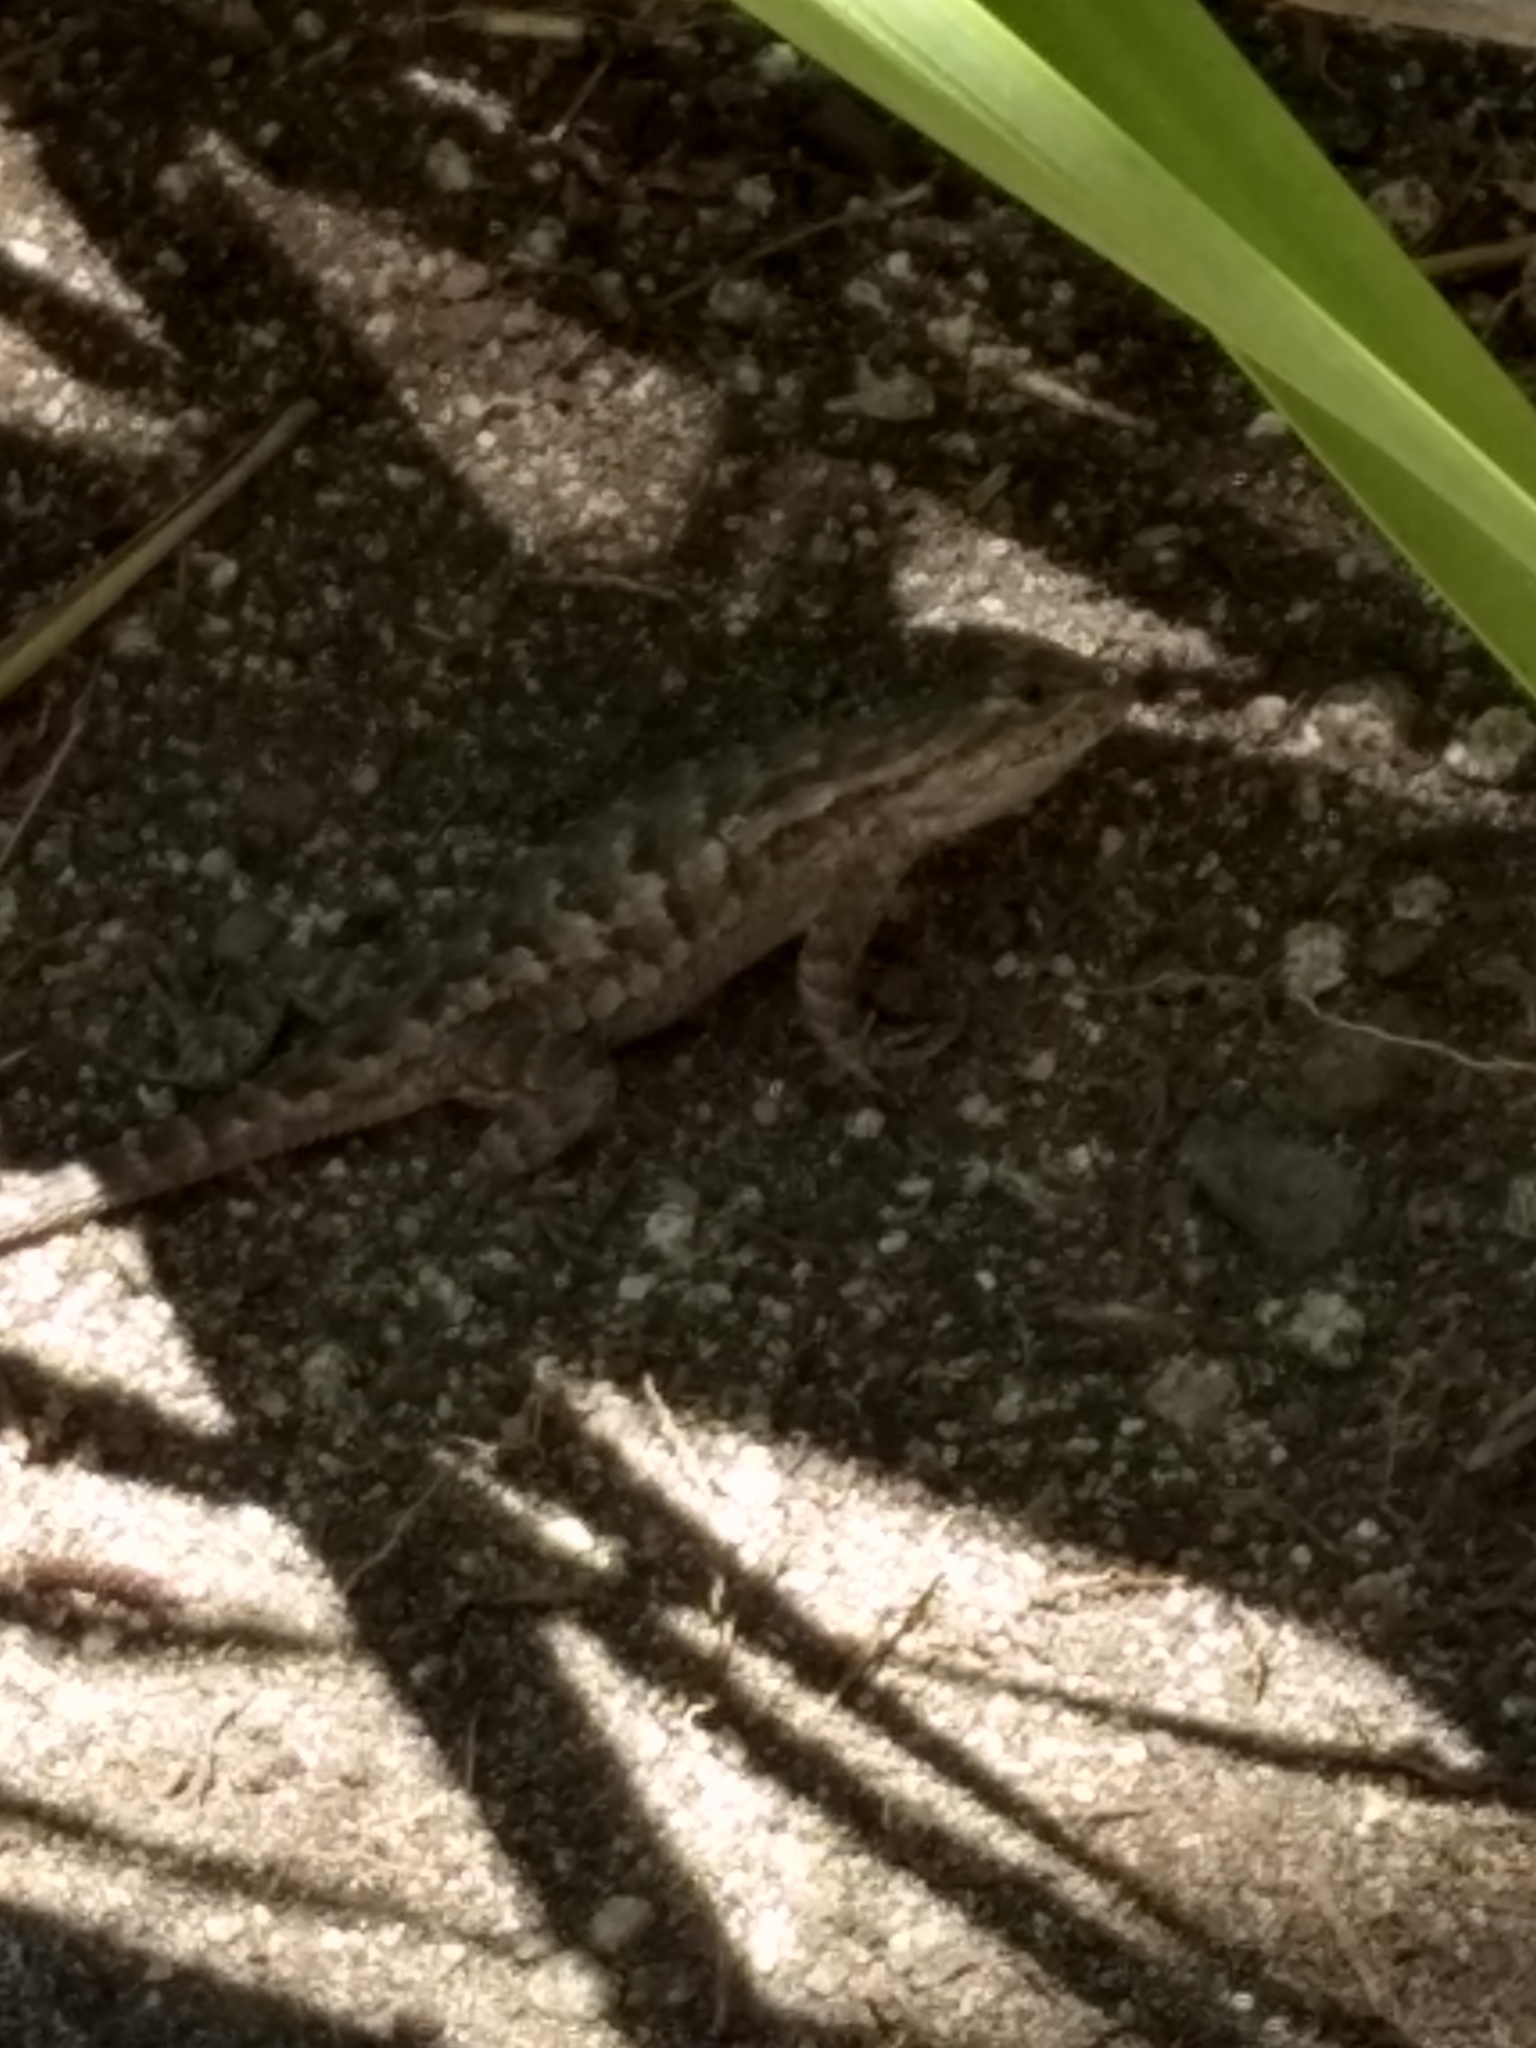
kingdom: Animalia
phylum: Chordata
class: Squamata
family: Phrynosomatidae
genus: Sceloporus
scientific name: Sceloporus occidentalis
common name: Western fence lizard
